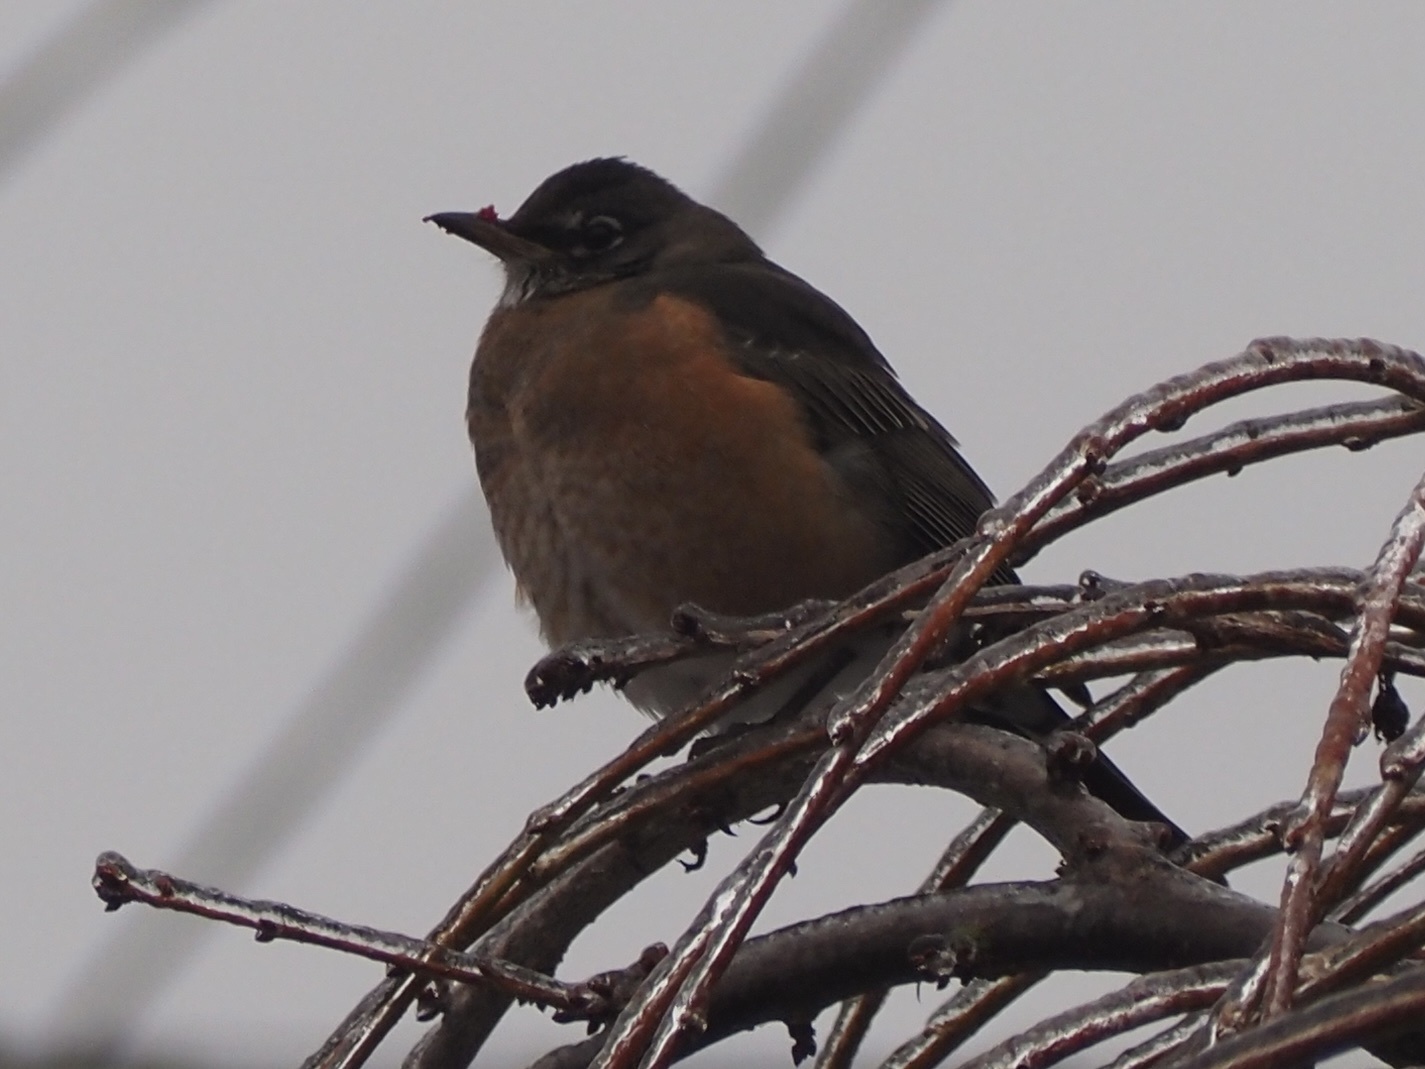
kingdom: Animalia
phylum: Chordata
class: Aves
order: Passeriformes
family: Turdidae
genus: Turdus
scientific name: Turdus migratorius
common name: American robin
